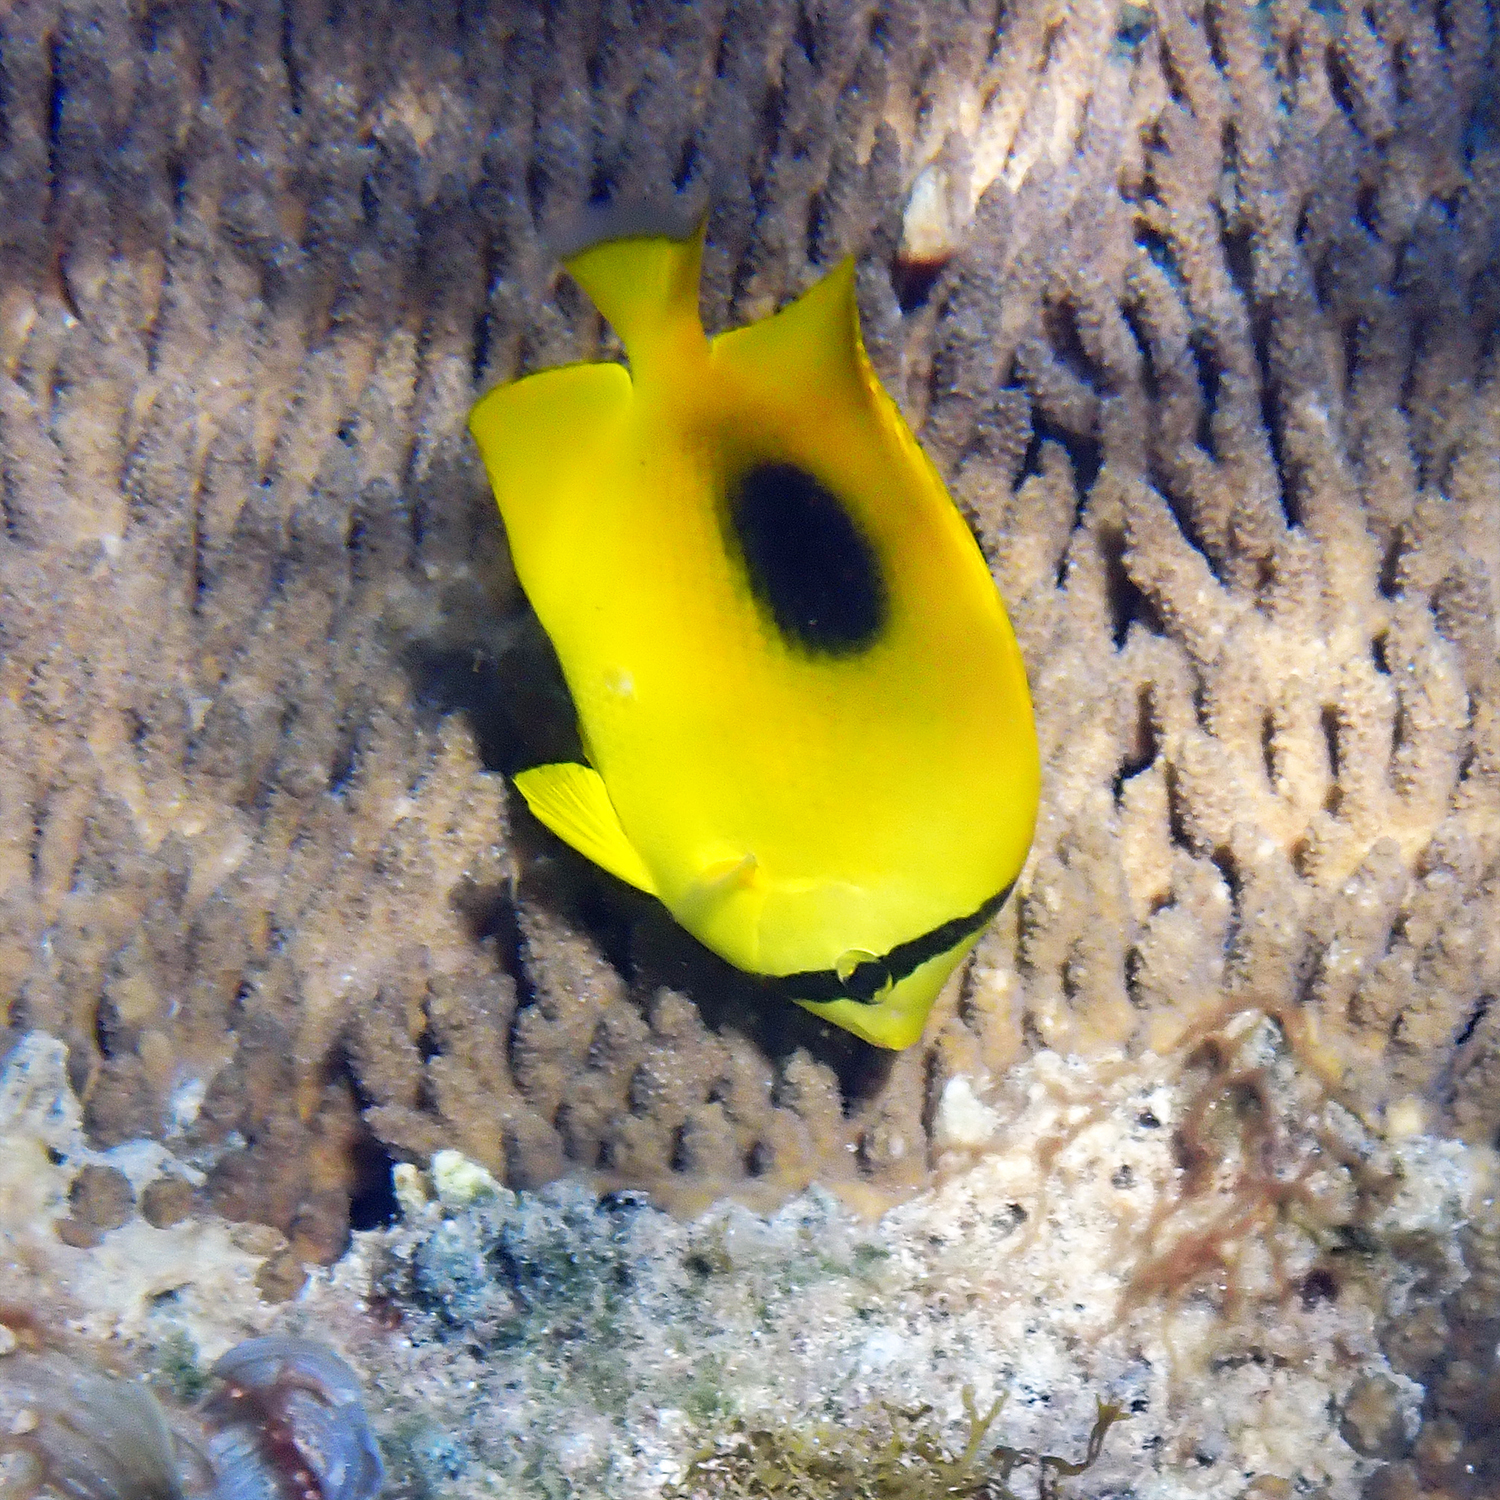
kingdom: Animalia
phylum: Chordata
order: Perciformes
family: Chaetodontidae
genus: Chaetodon
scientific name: Chaetodon speculum
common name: Mirror butterflyfish
